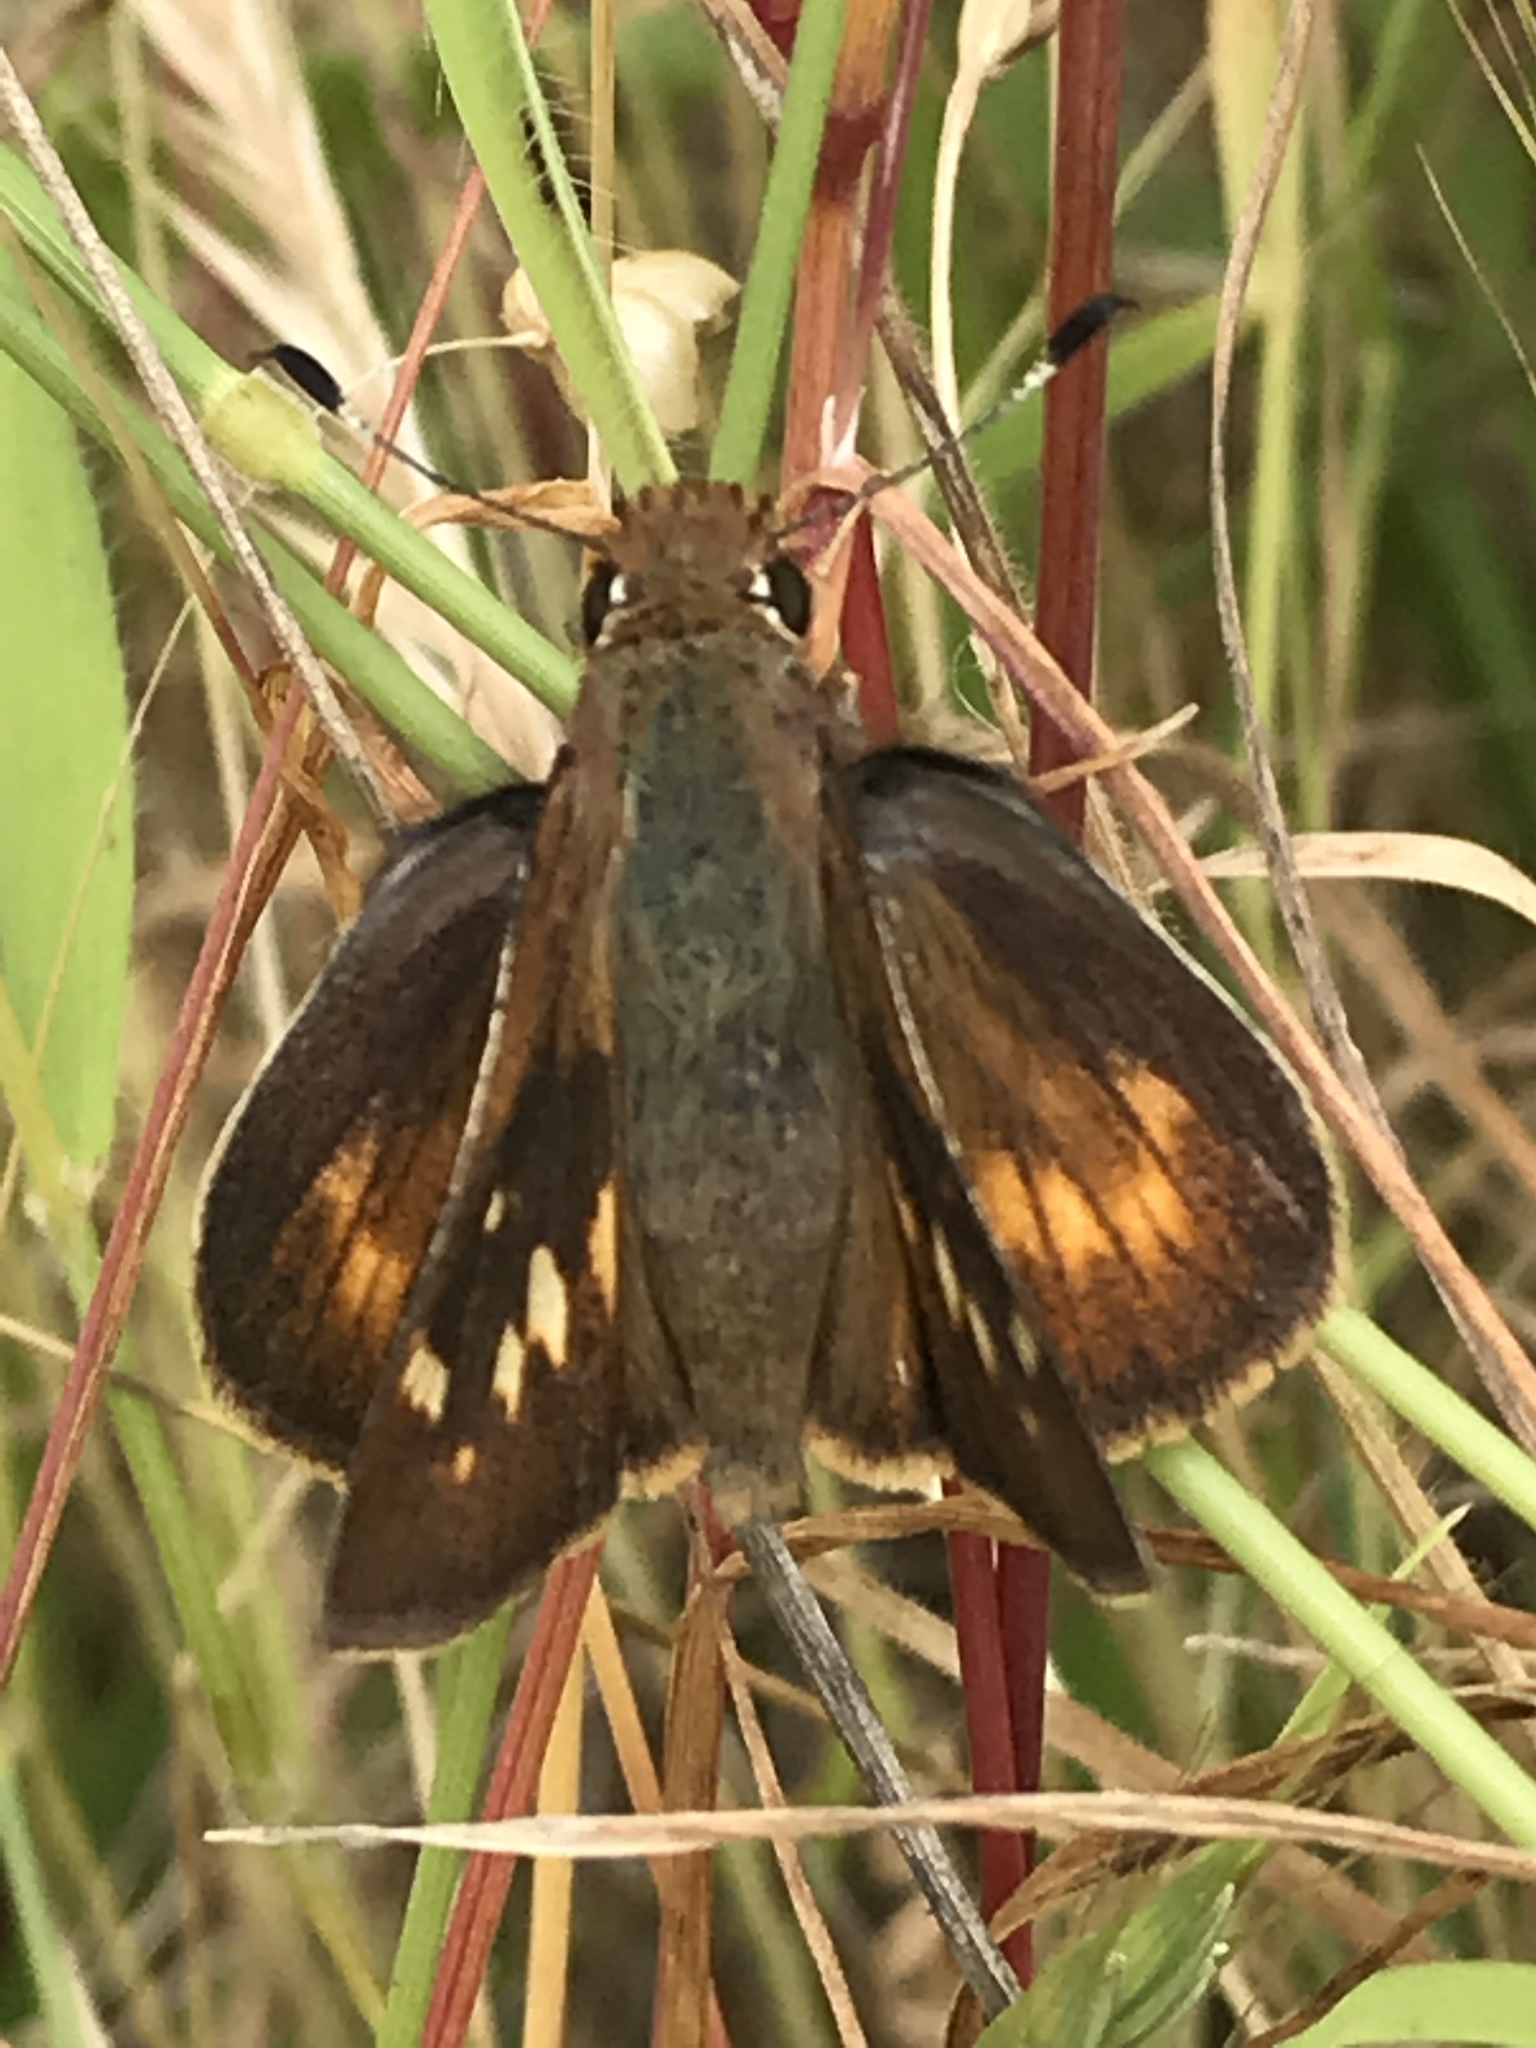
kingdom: Animalia
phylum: Arthropoda
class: Insecta
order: Lepidoptera
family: Hesperiidae
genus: Lon
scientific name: Lon melane
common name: Umber skipper
